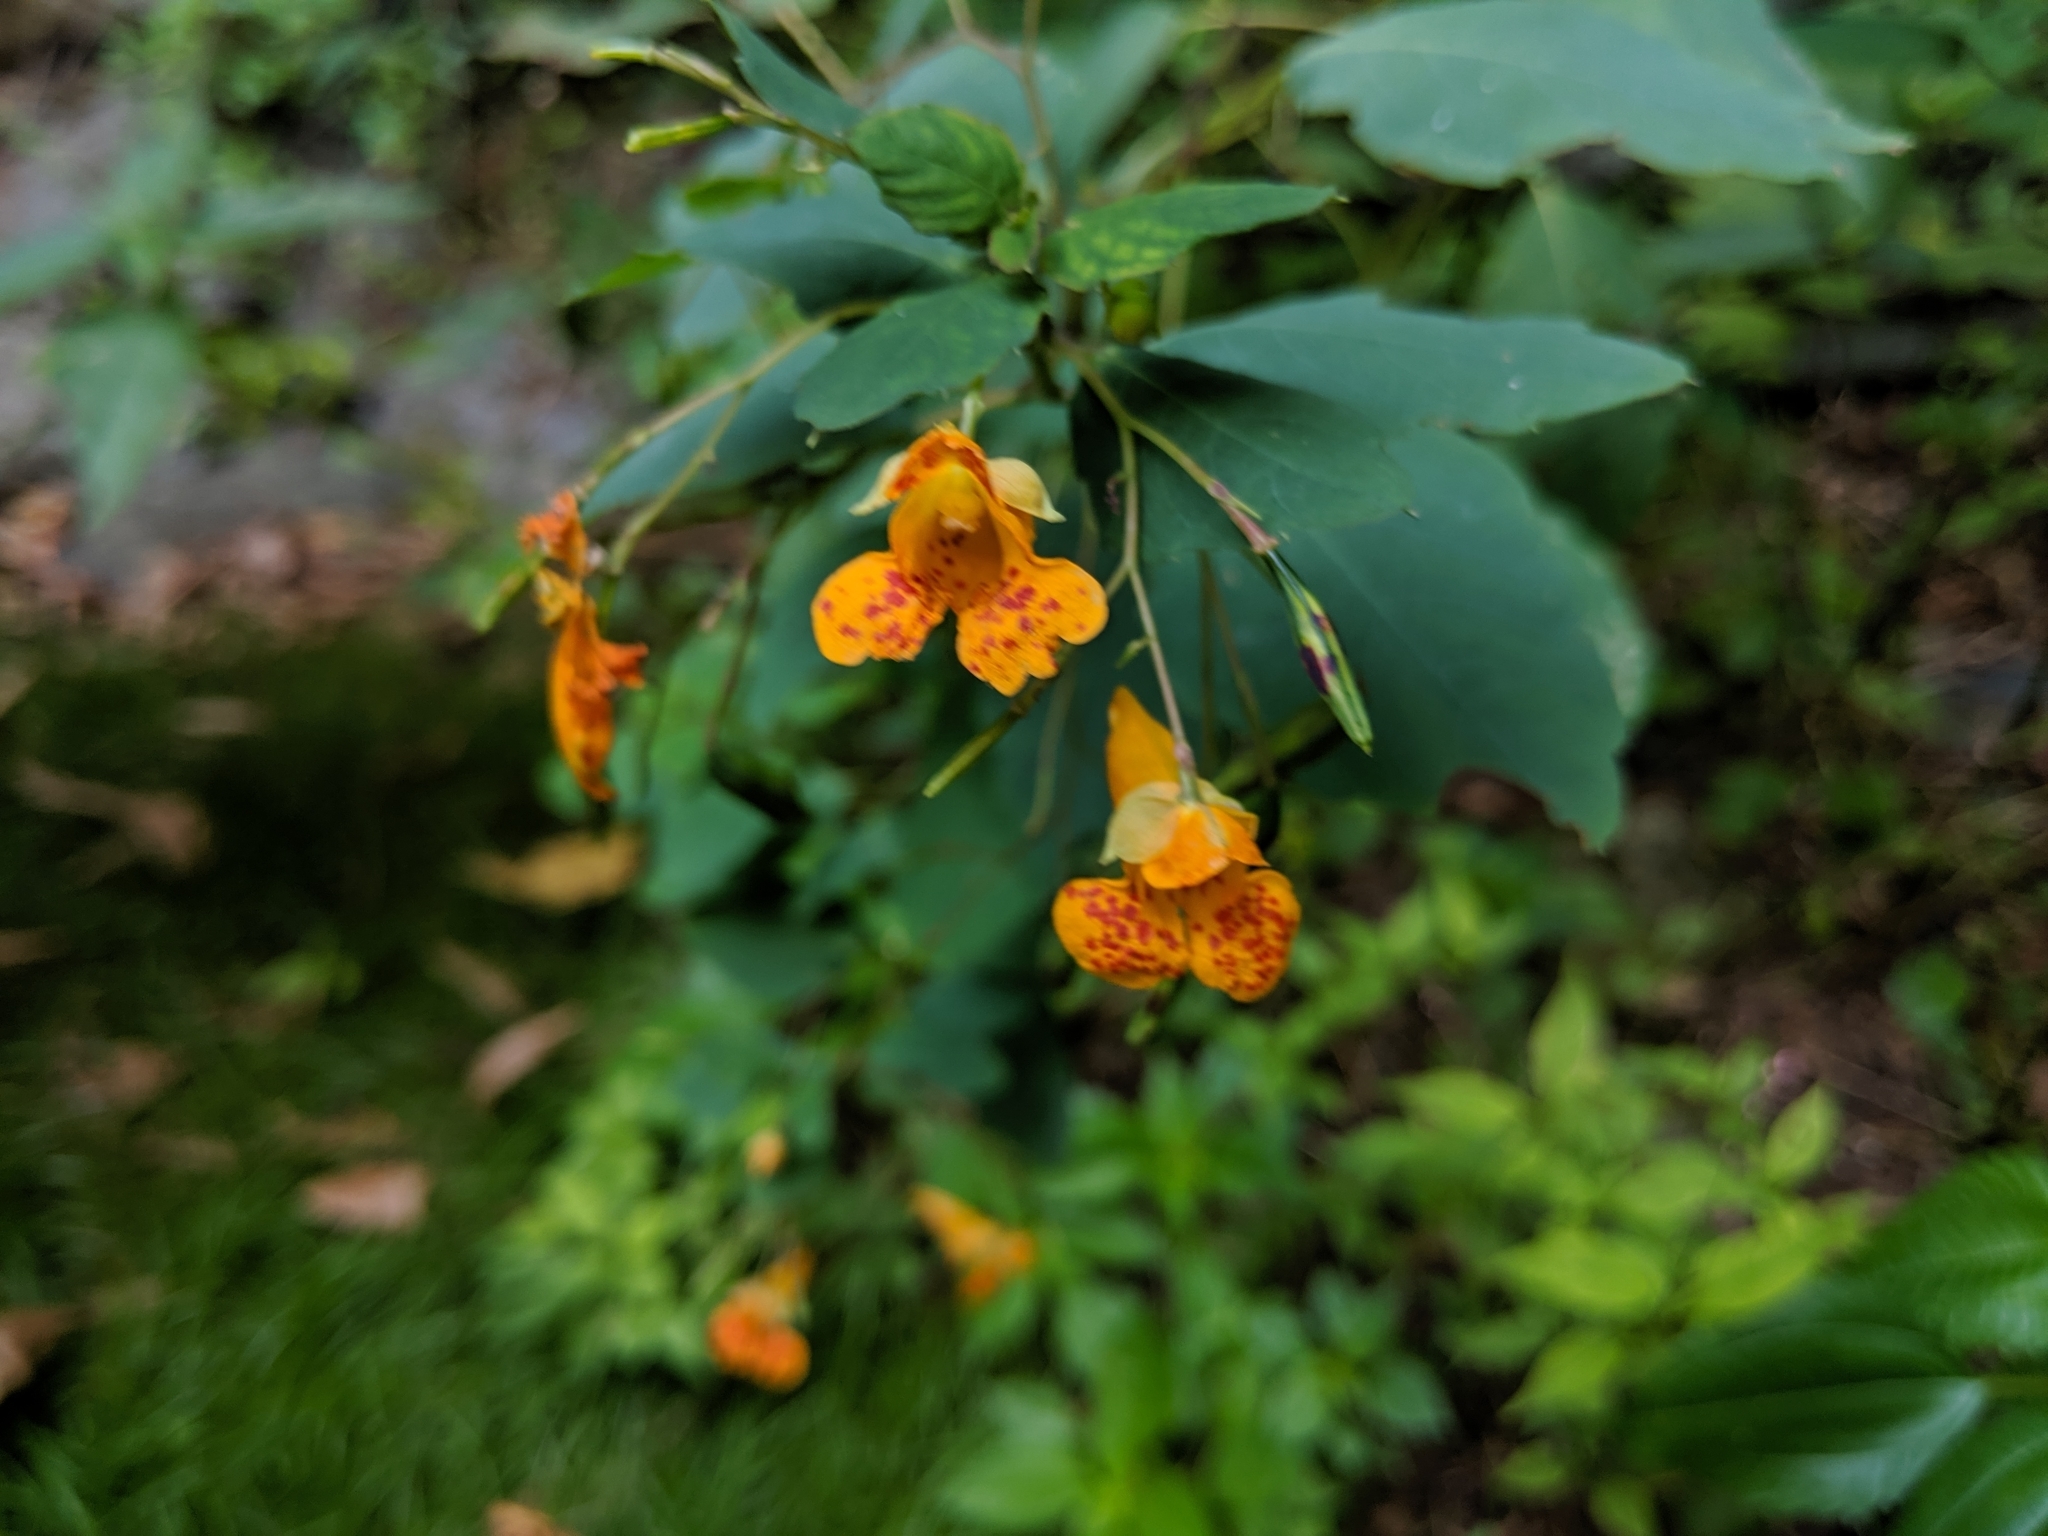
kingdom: Plantae
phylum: Tracheophyta
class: Magnoliopsida
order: Ericales
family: Balsaminaceae
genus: Impatiens
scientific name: Impatiens capensis
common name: Orange balsam
